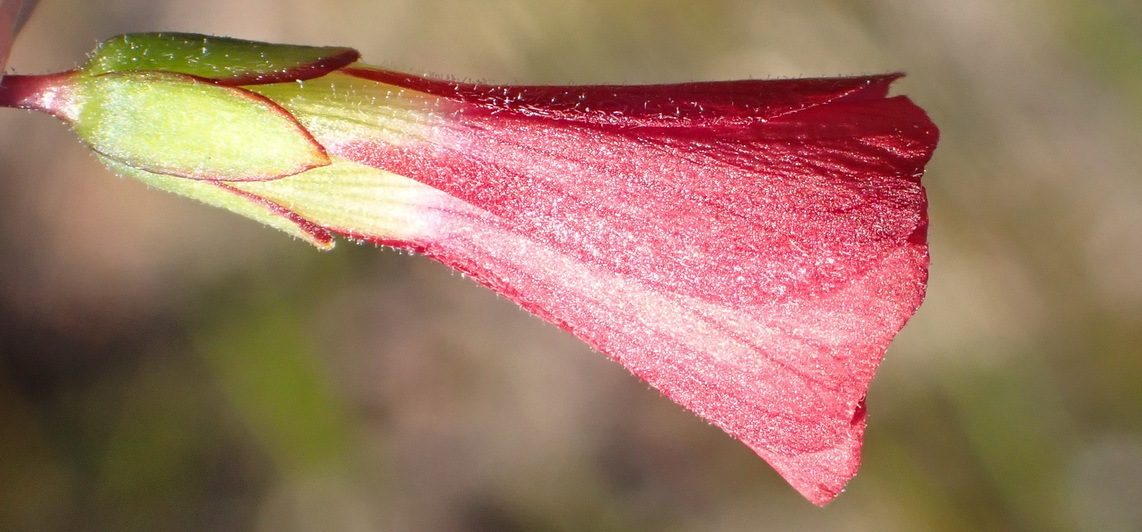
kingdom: Plantae
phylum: Tracheophyta
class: Magnoliopsida
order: Oxalidales
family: Oxalidaceae
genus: Oxalis
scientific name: Oxalis pendulifolia
